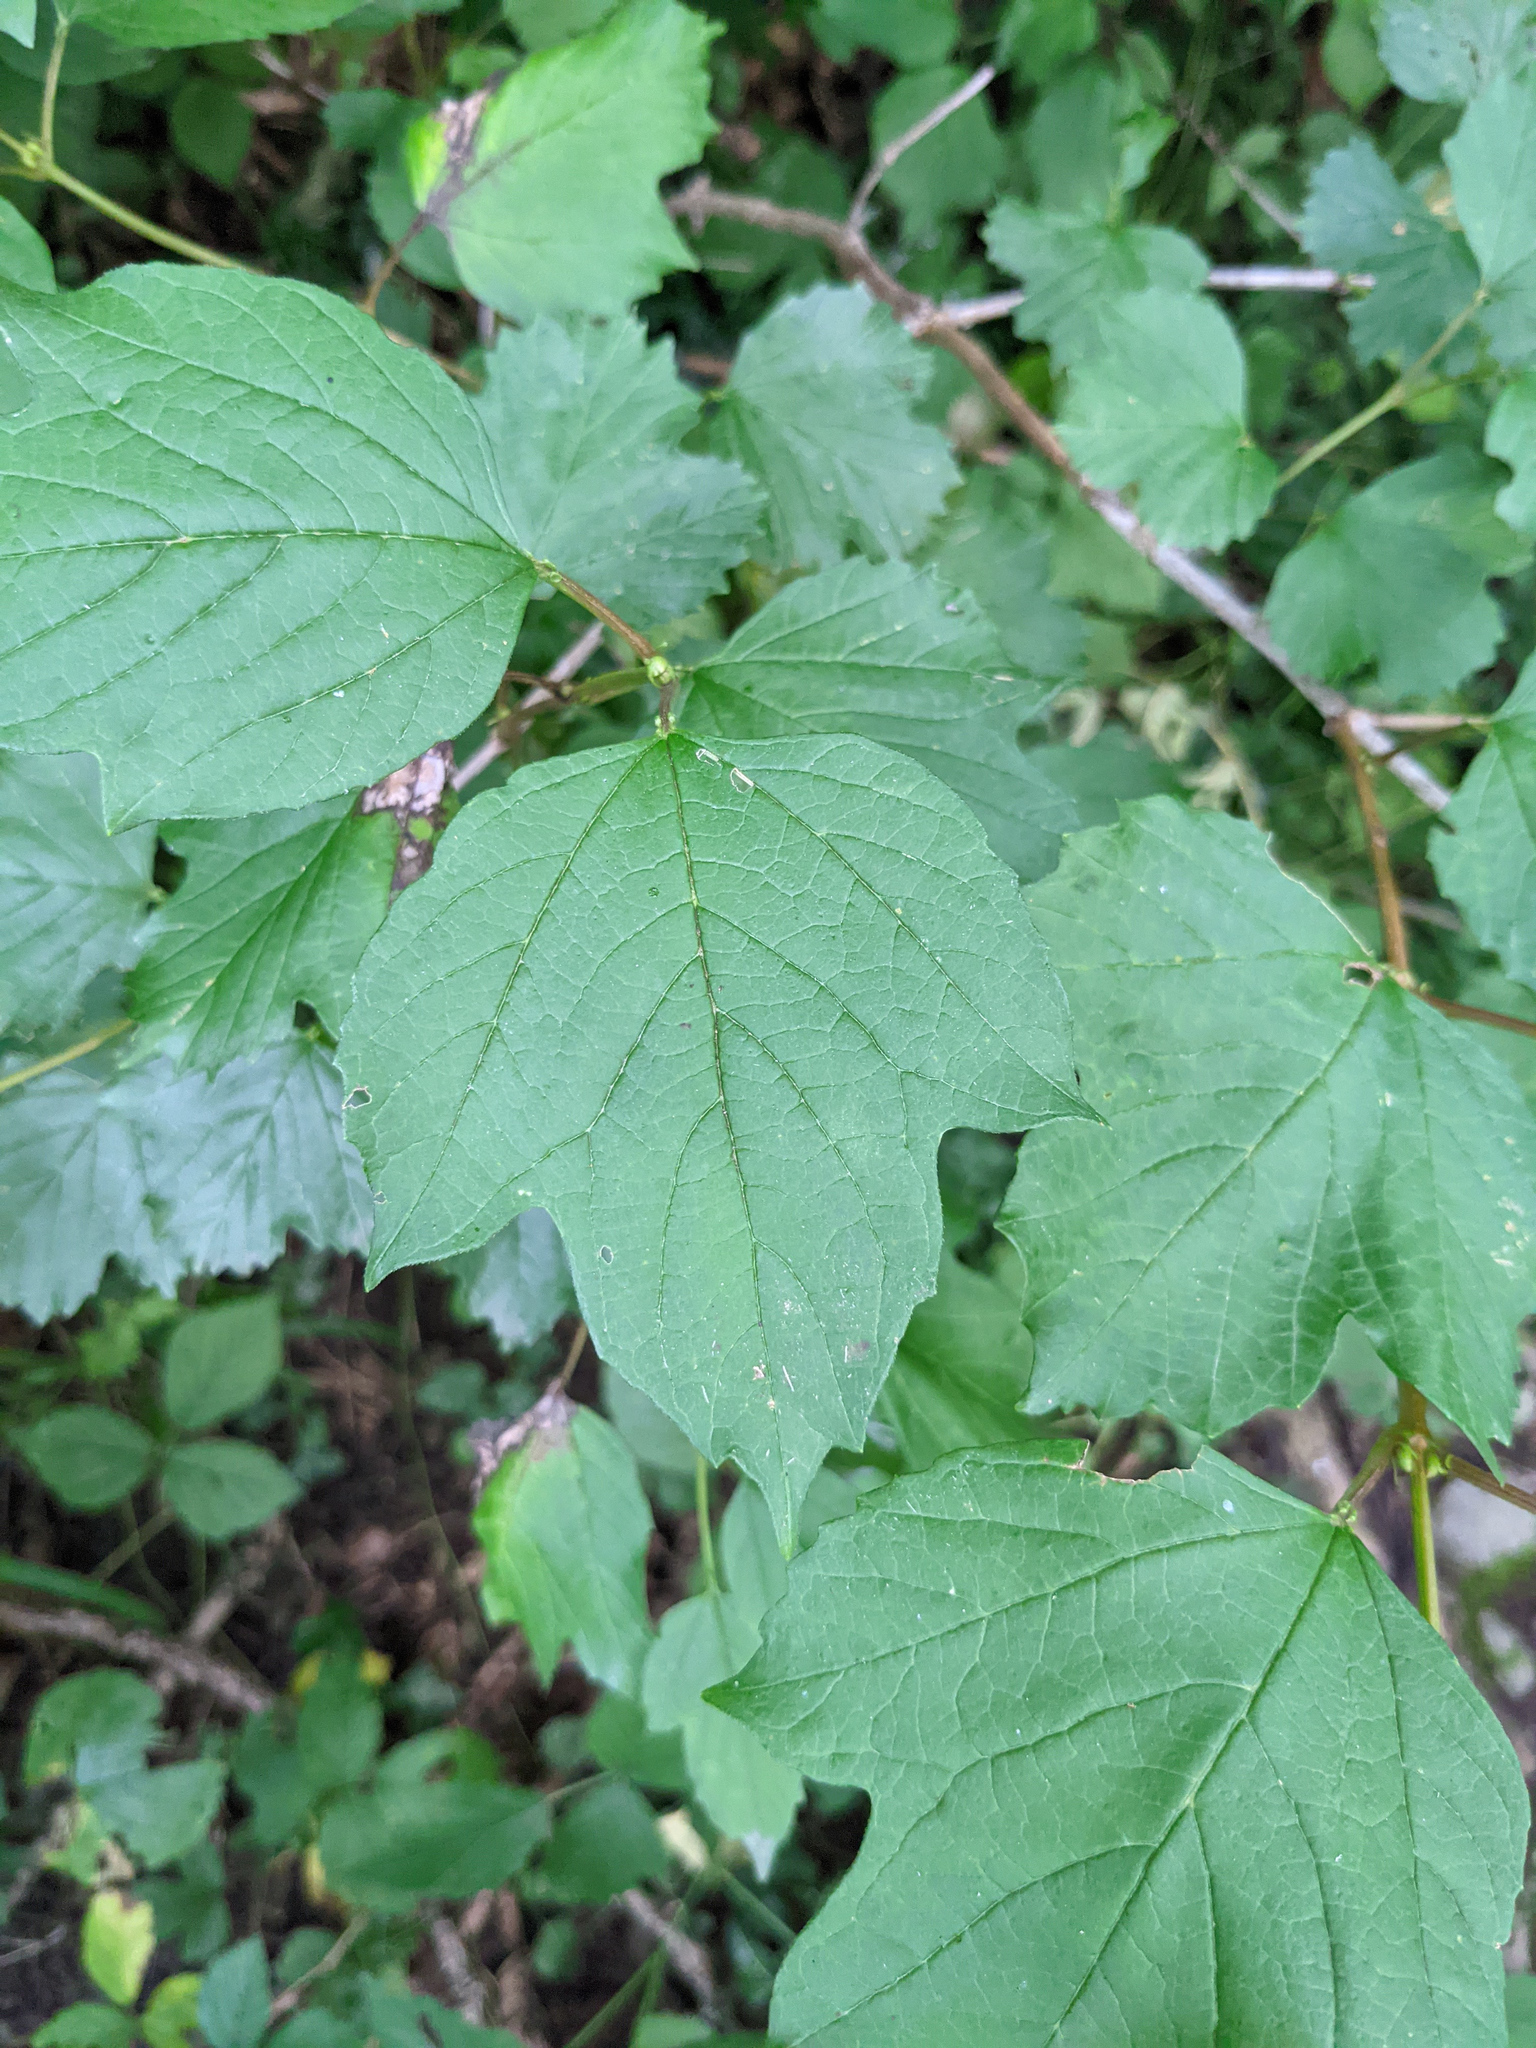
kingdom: Plantae
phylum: Tracheophyta
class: Magnoliopsida
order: Dipsacales
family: Viburnaceae
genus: Viburnum
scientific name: Viburnum opulus
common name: Guelder-rose
